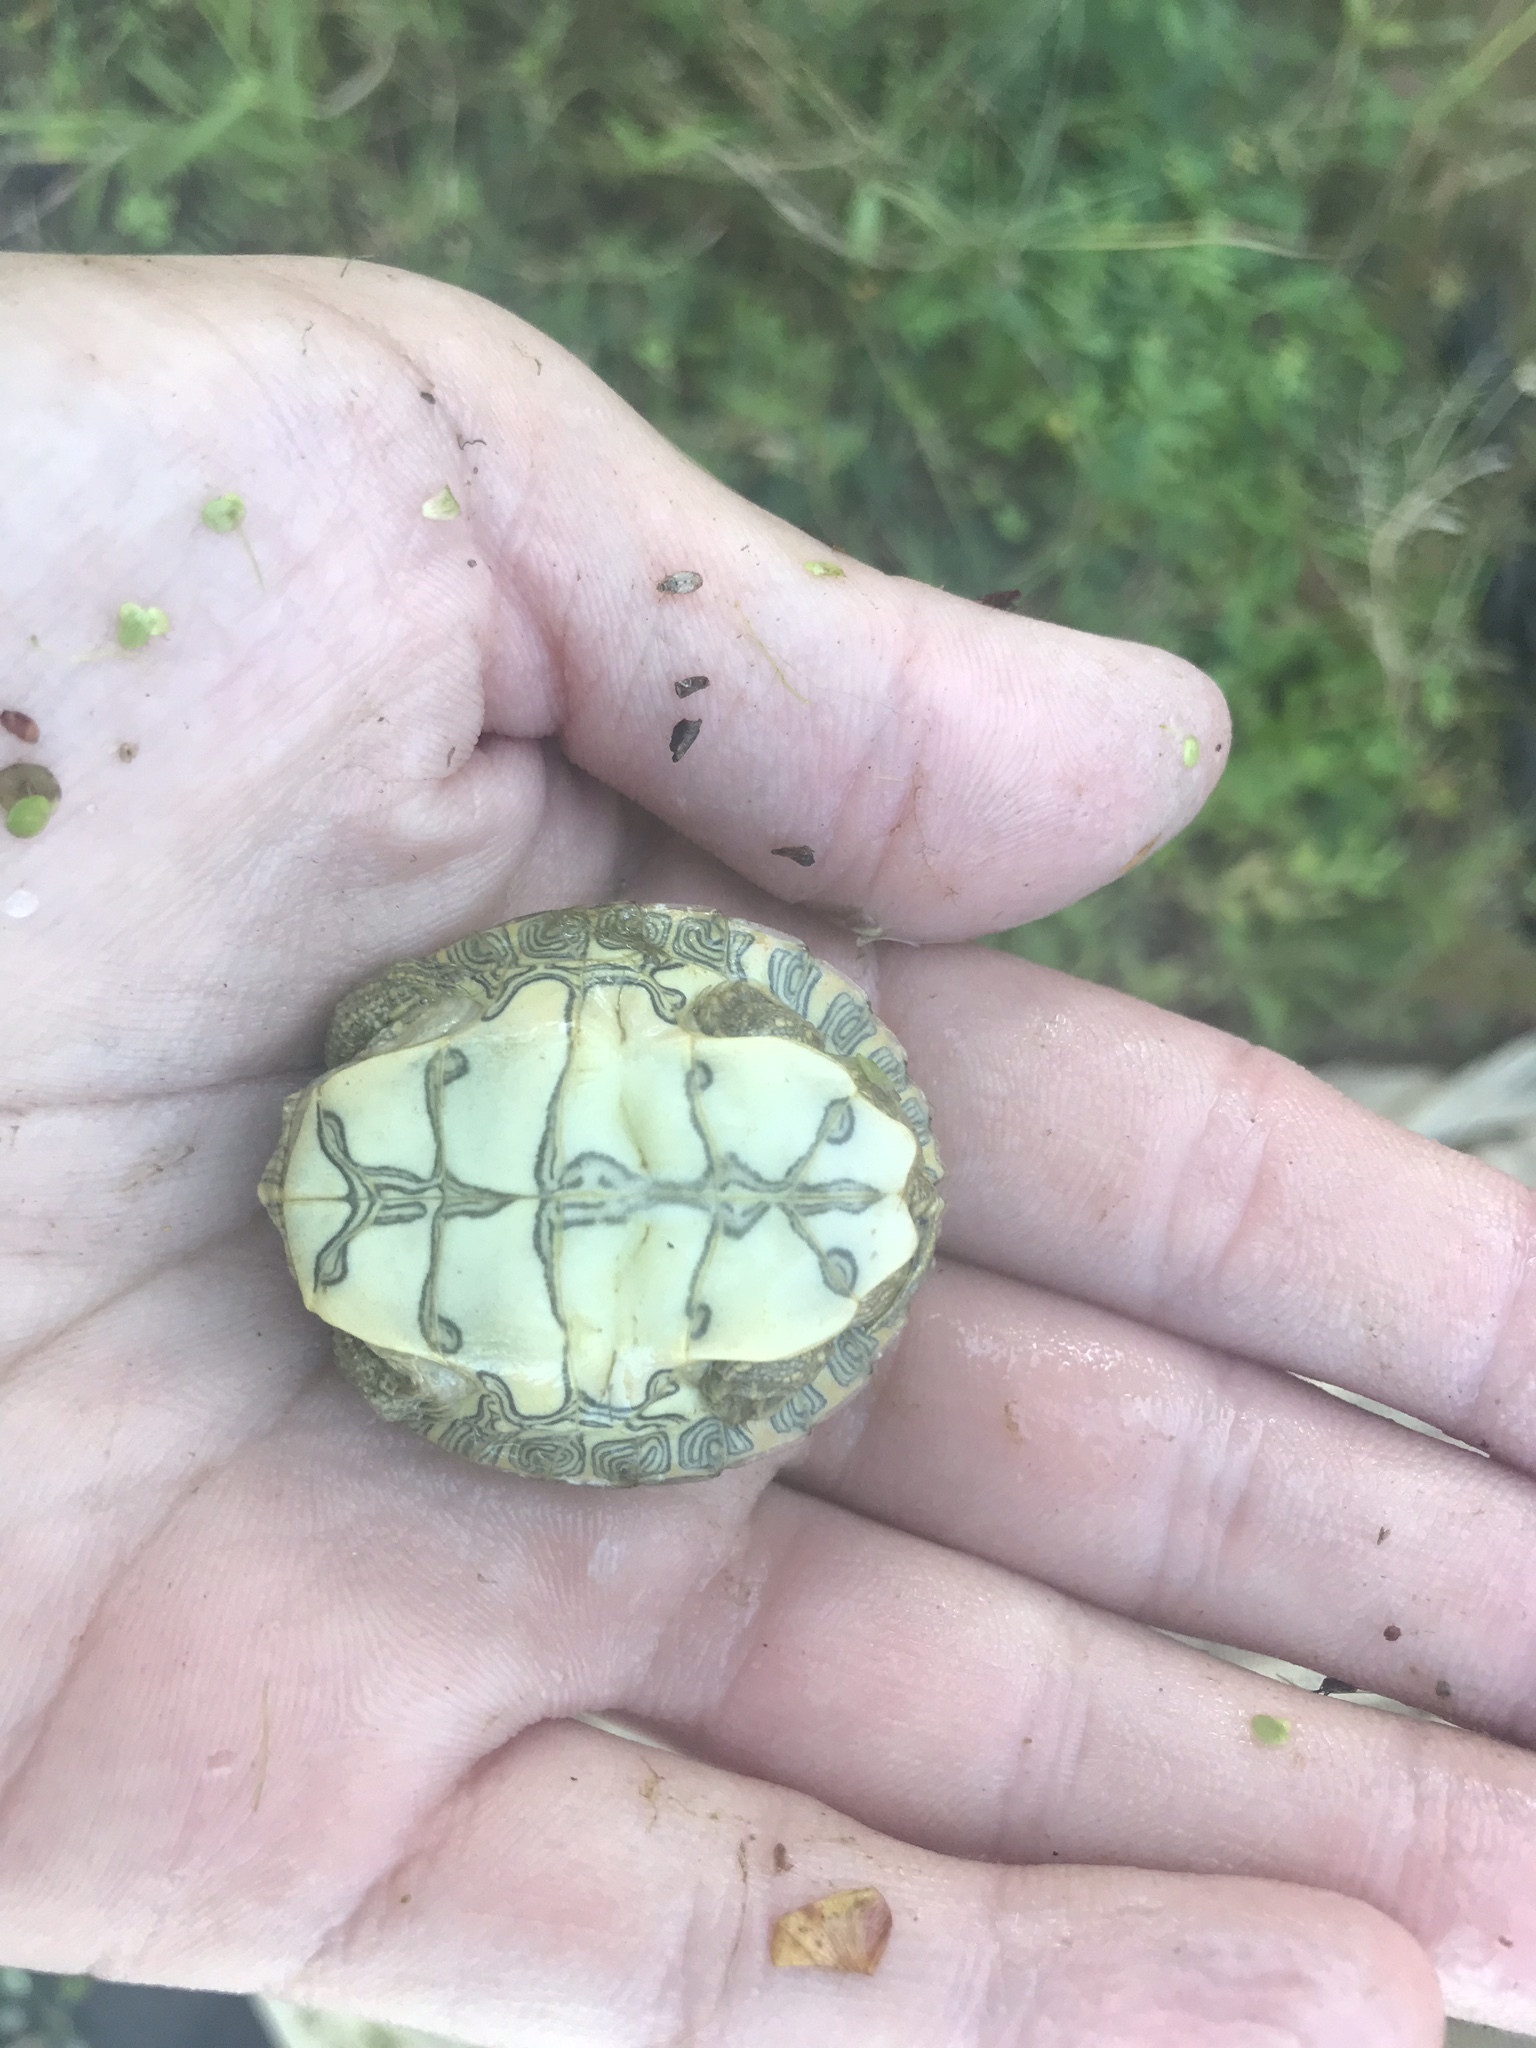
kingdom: Animalia
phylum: Chordata
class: Testudines
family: Emydidae
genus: Pseudemys
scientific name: Pseudemys texana
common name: Texas river cooter
